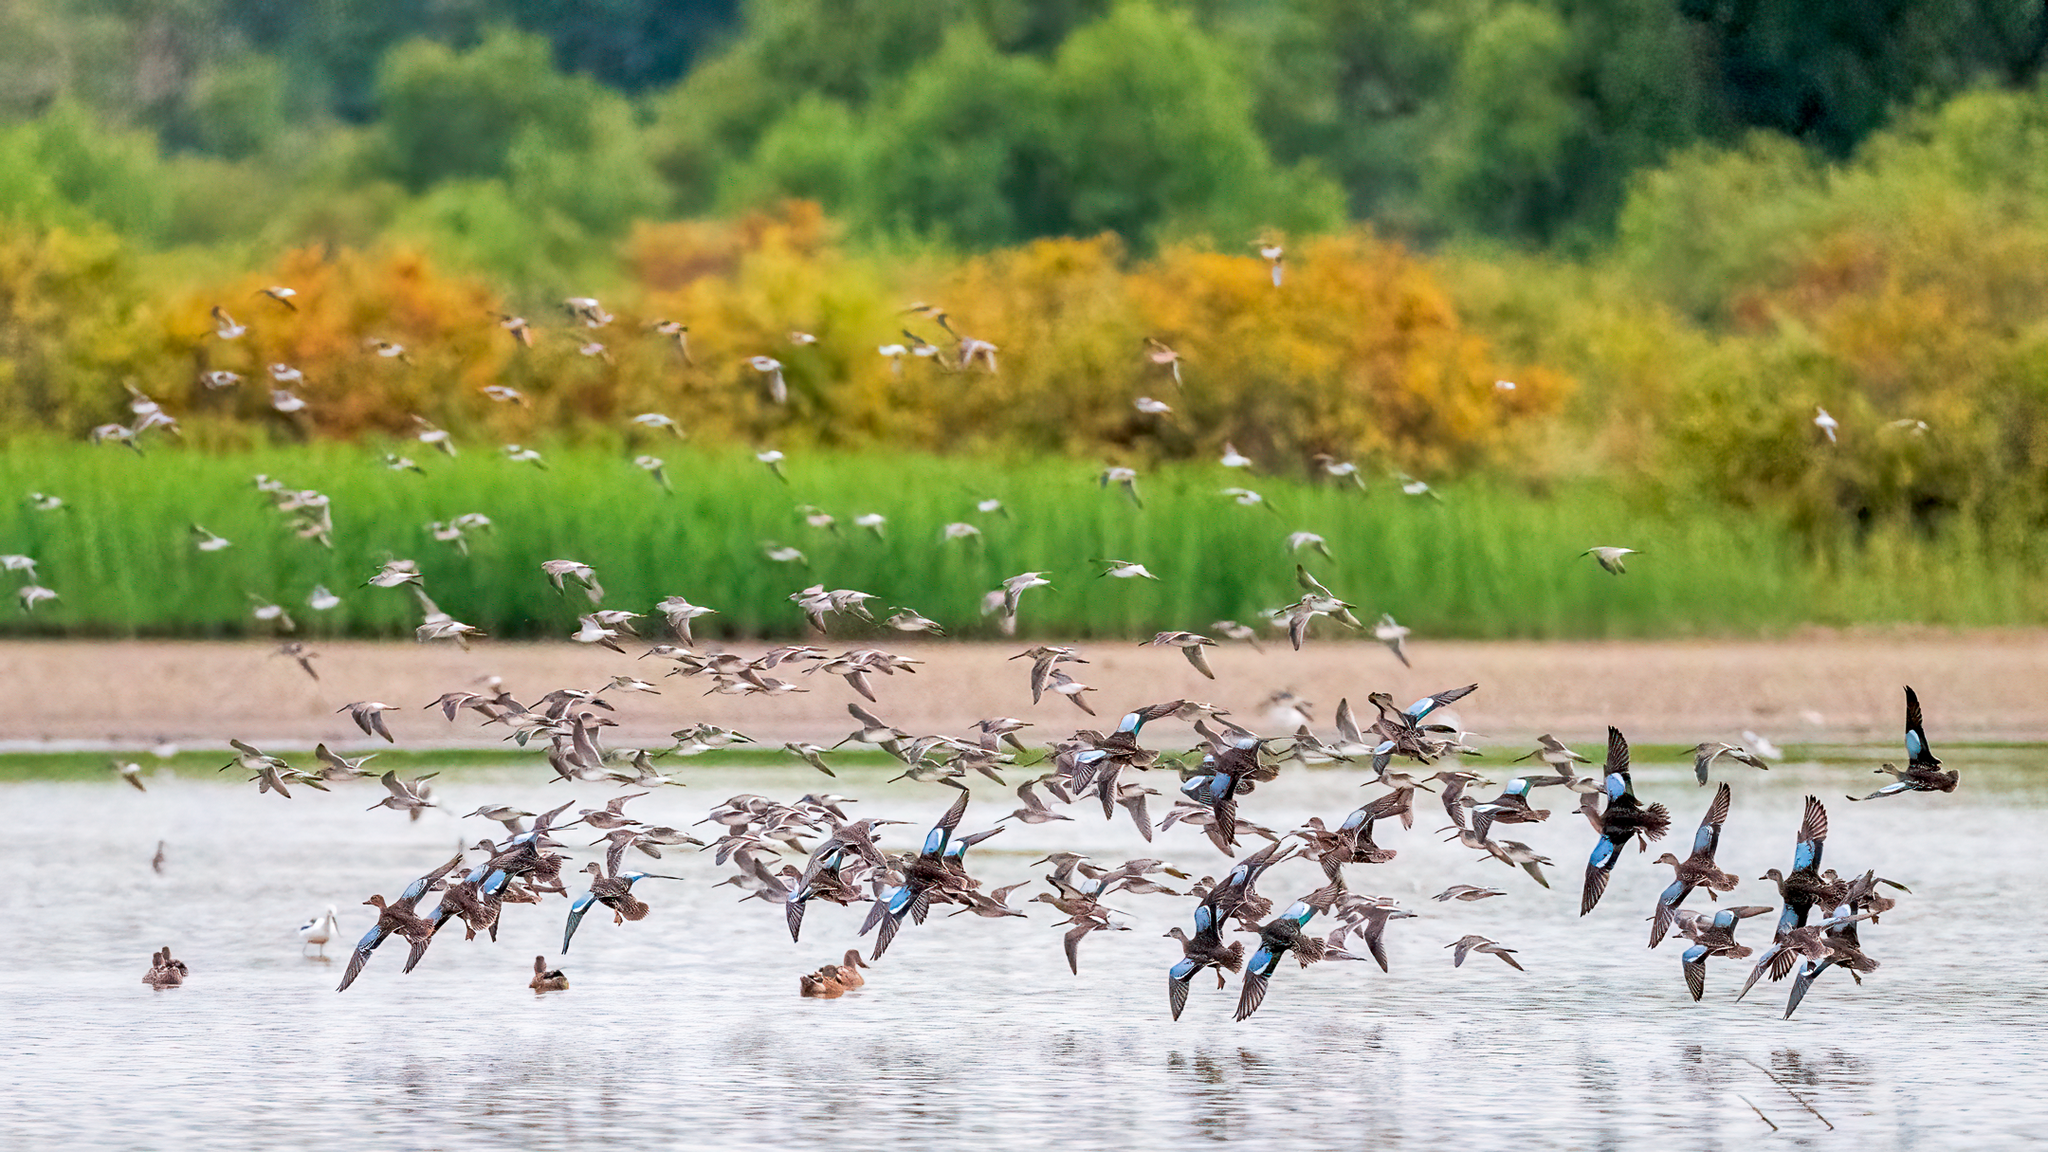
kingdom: Animalia
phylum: Chordata
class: Aves
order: Anseriformes
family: Anatidae
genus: Spatula
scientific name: Spatula discors
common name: Blue-winged teal
